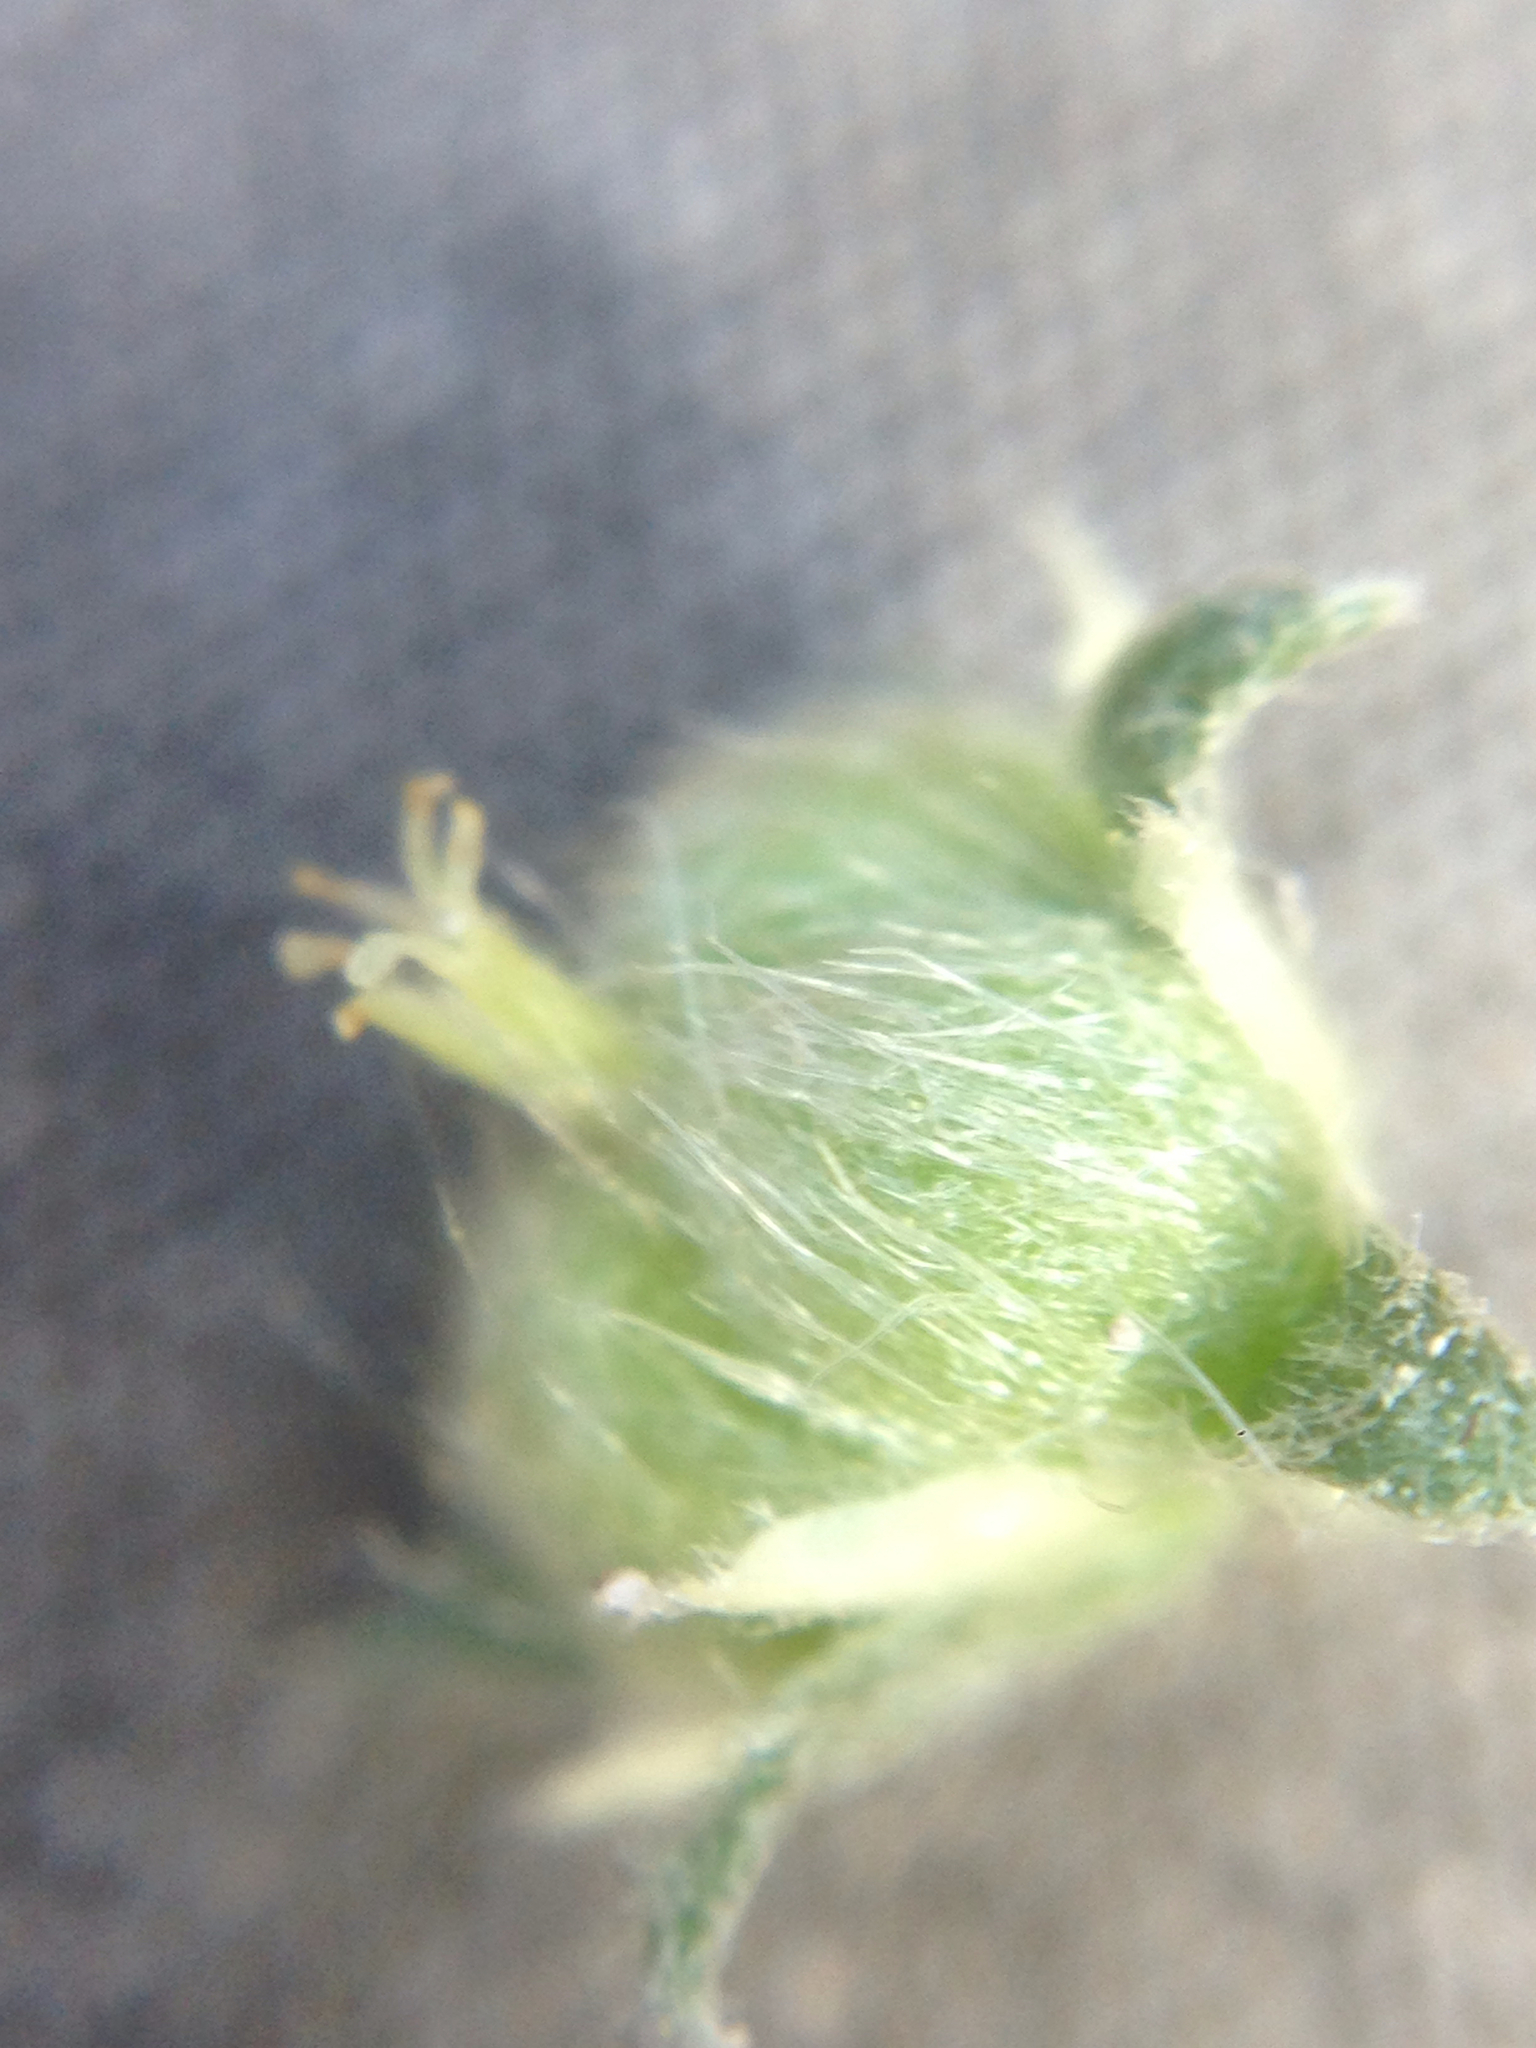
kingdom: Plantae
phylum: Tracheophyta
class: Magnoliopsida
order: Malpighiales
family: Euphorbiaceae
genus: Ditaxis
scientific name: Ditaxis lanceolata
